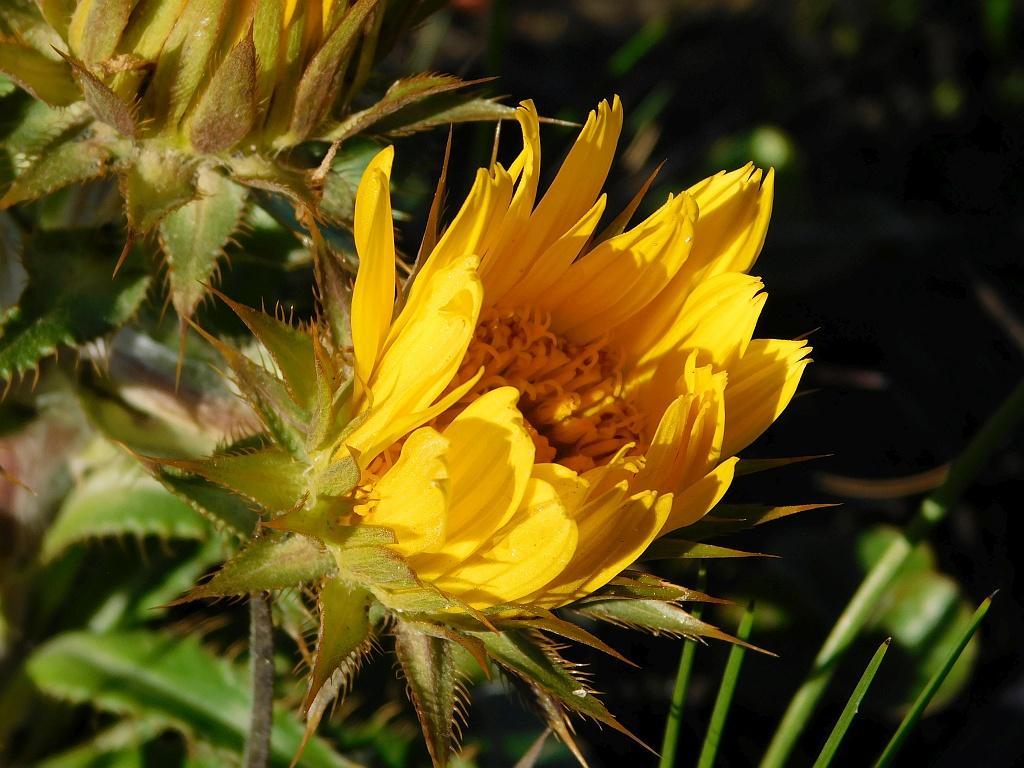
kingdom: Plantae
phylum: Tracheophyta
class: Magnoliopsida
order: Asterales
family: Asteraceae
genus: Berkheya
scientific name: Berkheya armata
